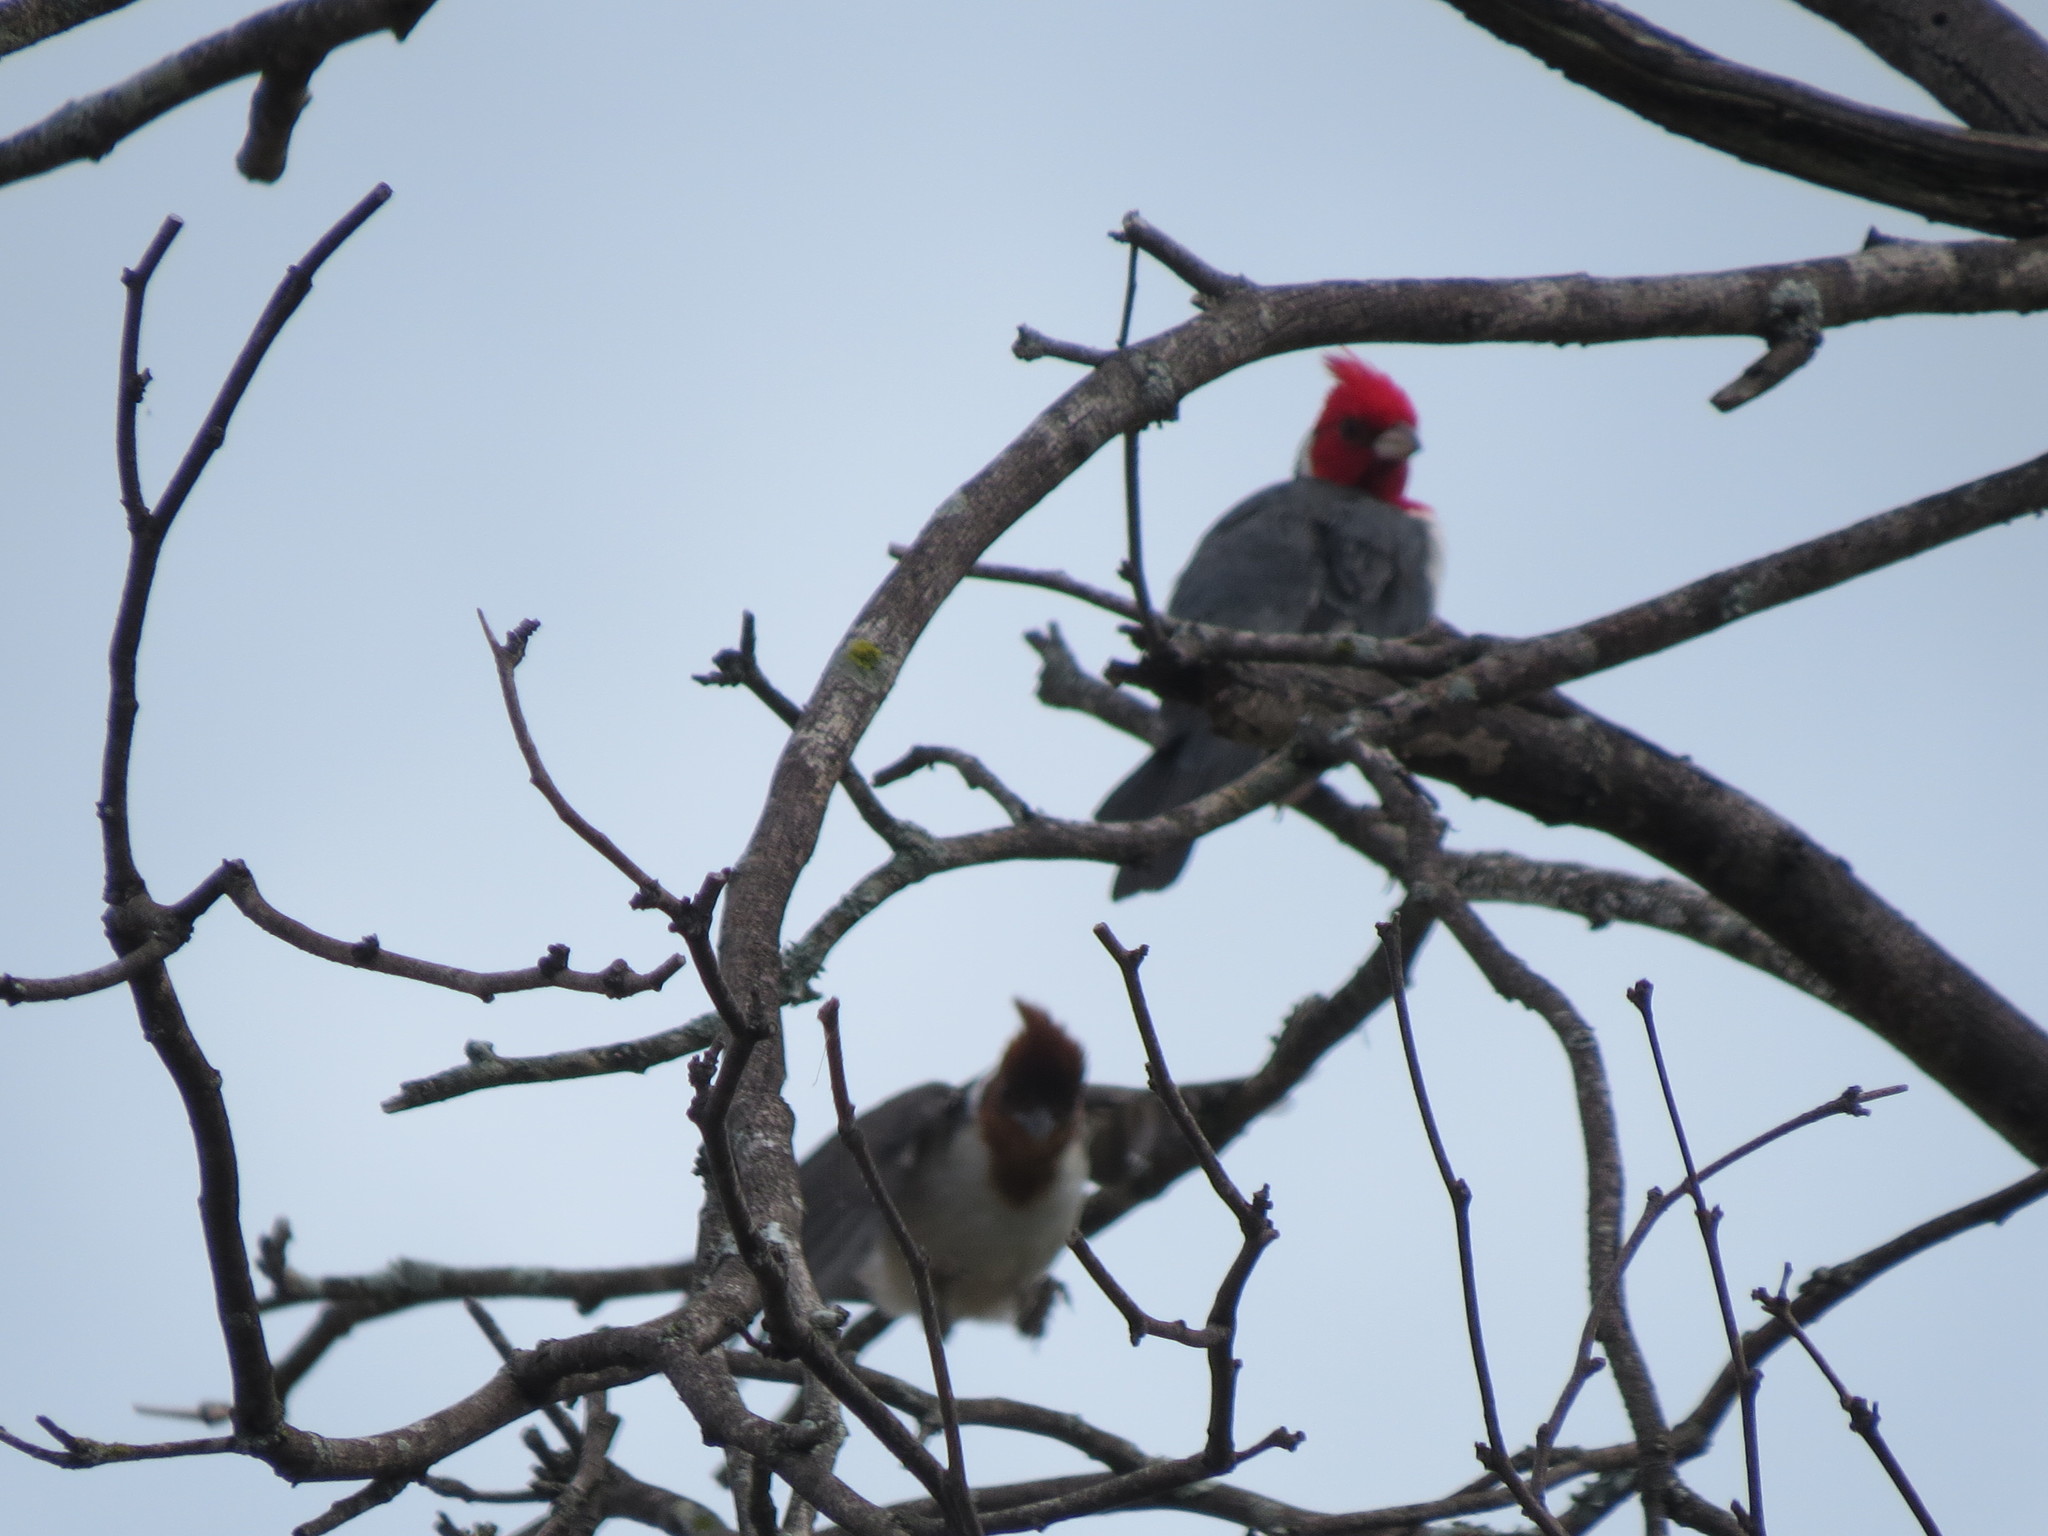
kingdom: Animalia
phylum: Chordata
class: Aves
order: Passeriformes
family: Thraupidae
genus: Paroaria
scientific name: Paroaria coronata
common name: Red-crested cardinal
